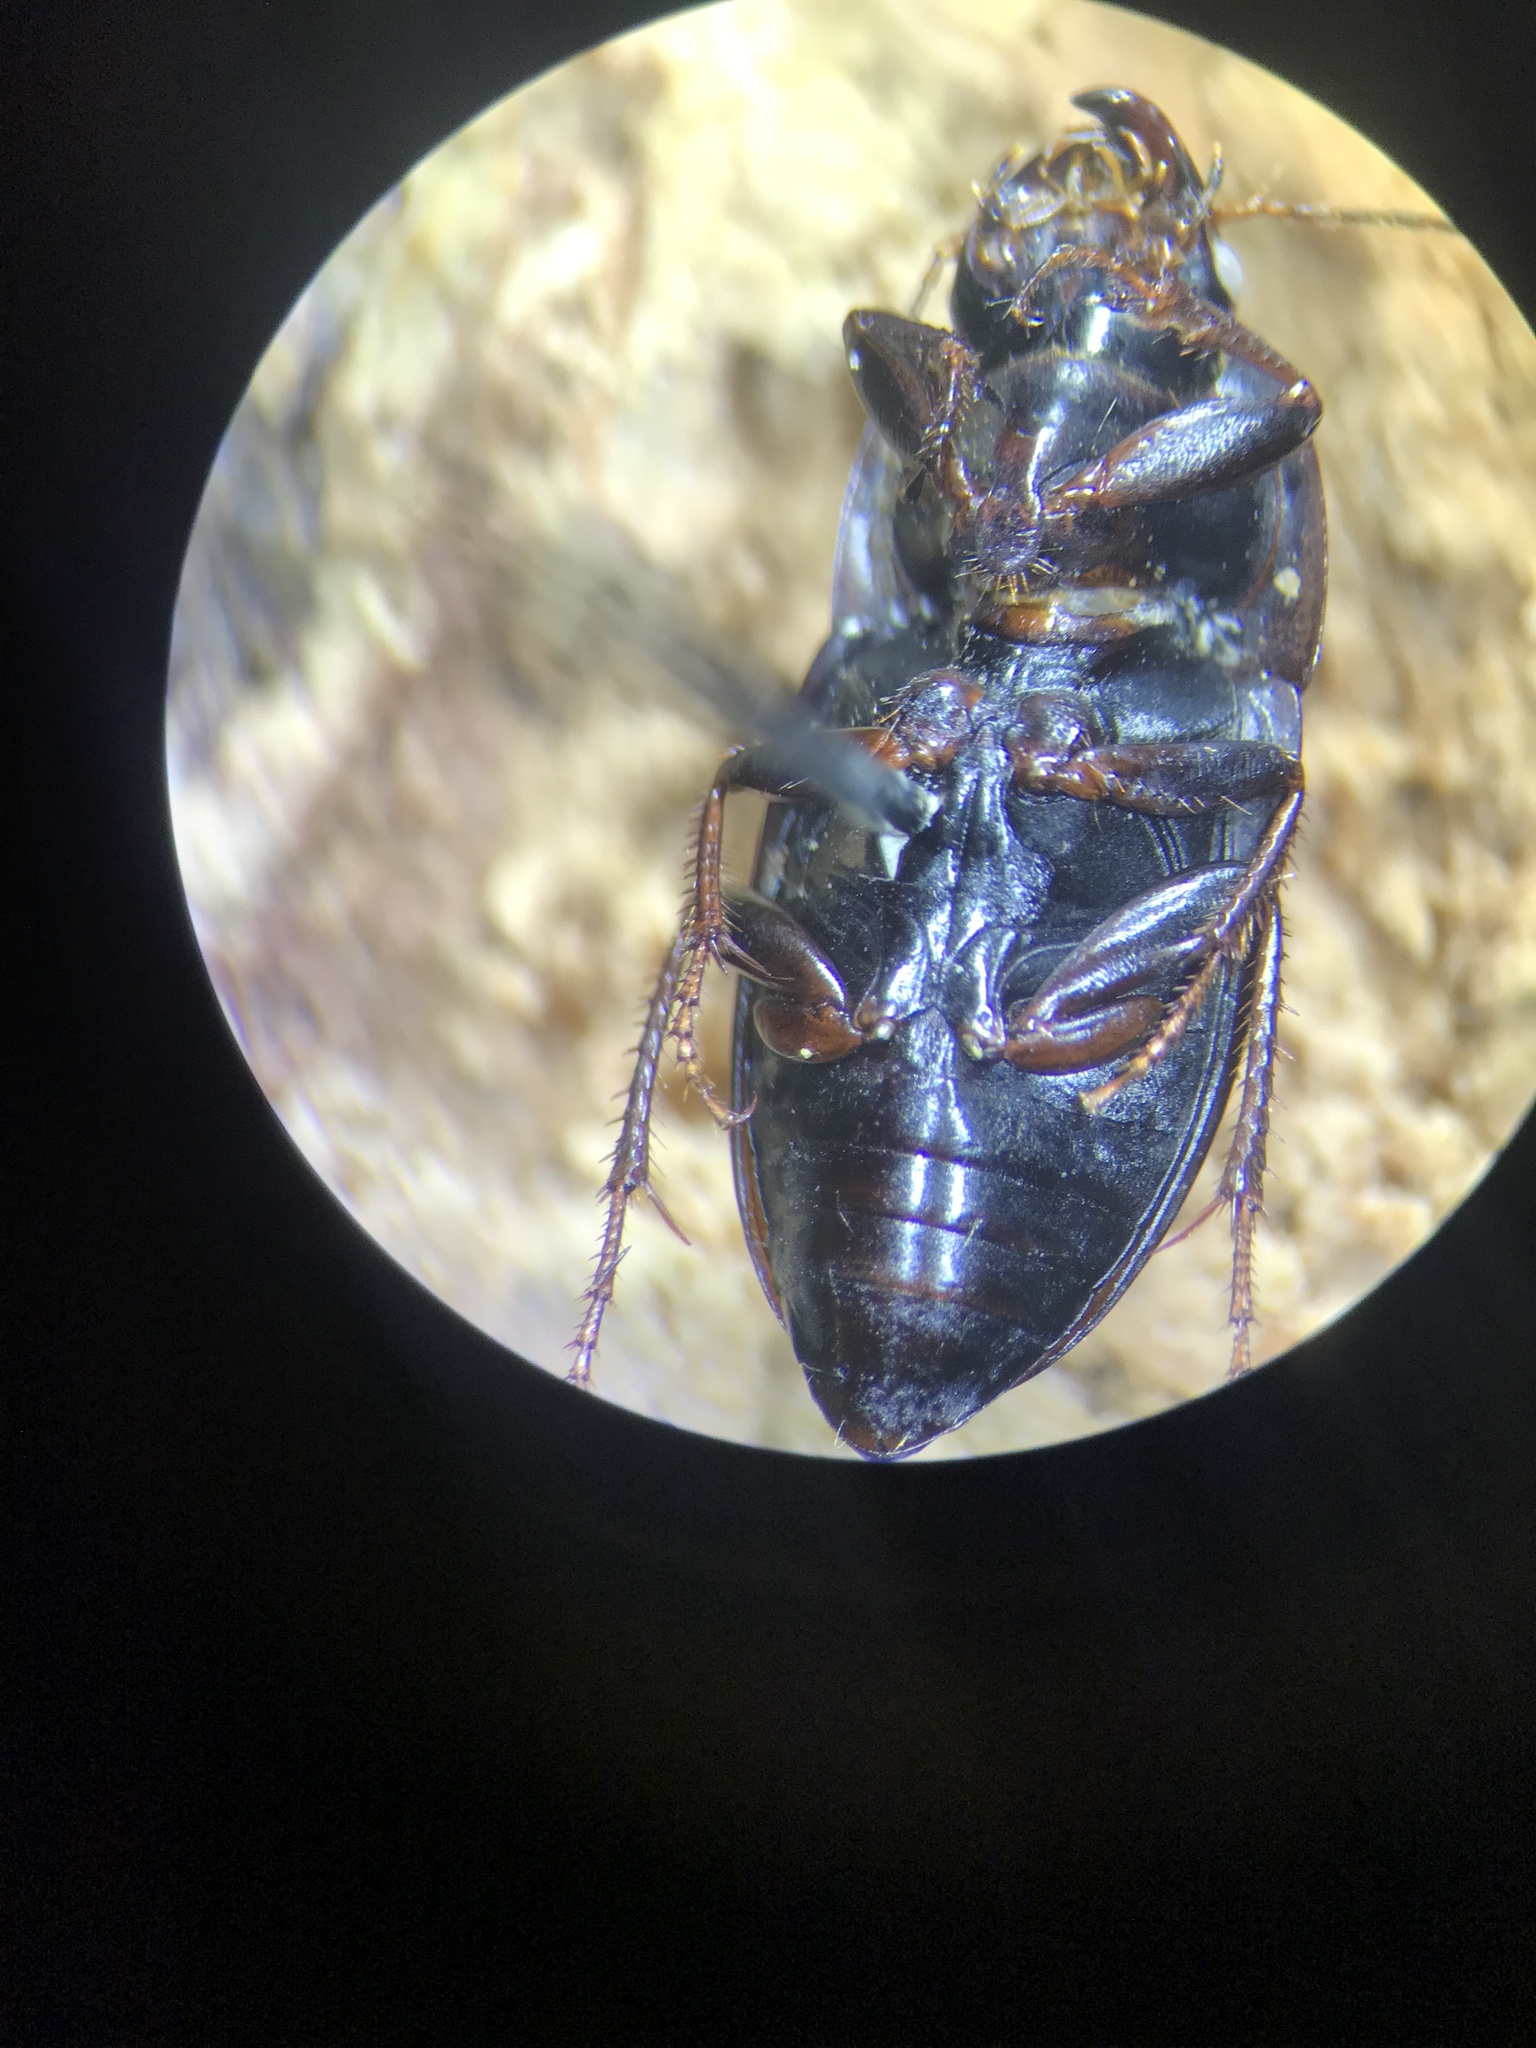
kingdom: Animalia
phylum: Arthropoda
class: Insecta
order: Coleoptera
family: Carabidae
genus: Anisodactylus
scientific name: Anisodactylus rusticus
